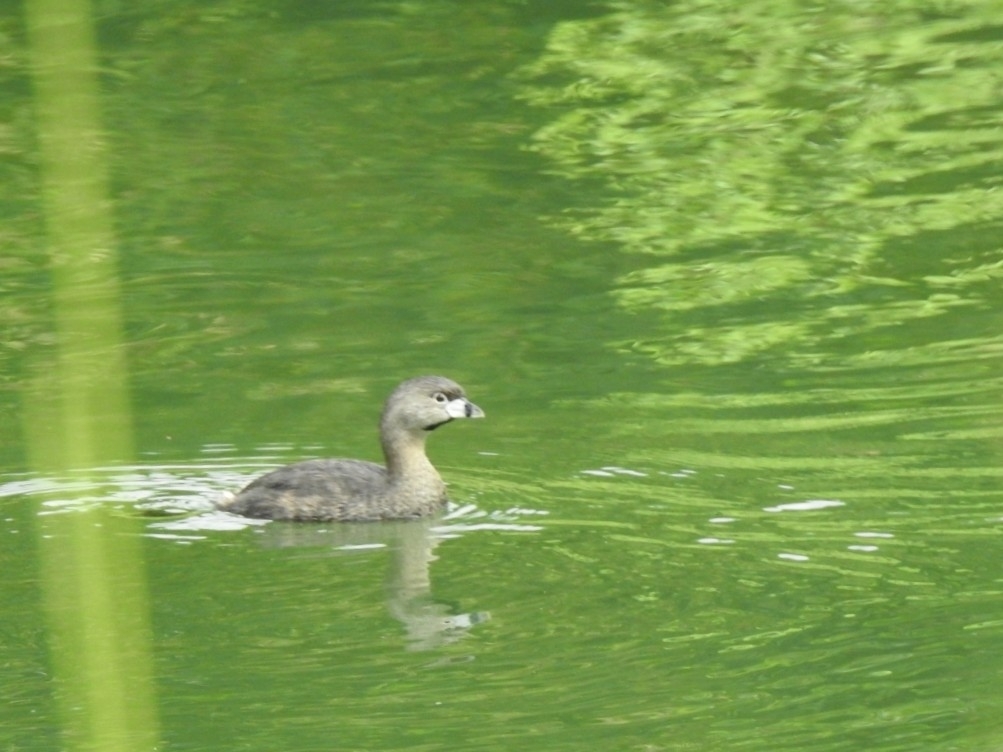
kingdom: Animalia
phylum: Chordata
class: Aves
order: Podicipediformes
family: Podicipedidae
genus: Podilymbus
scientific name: Podilymbus podiceps
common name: Pied-billed grebe
